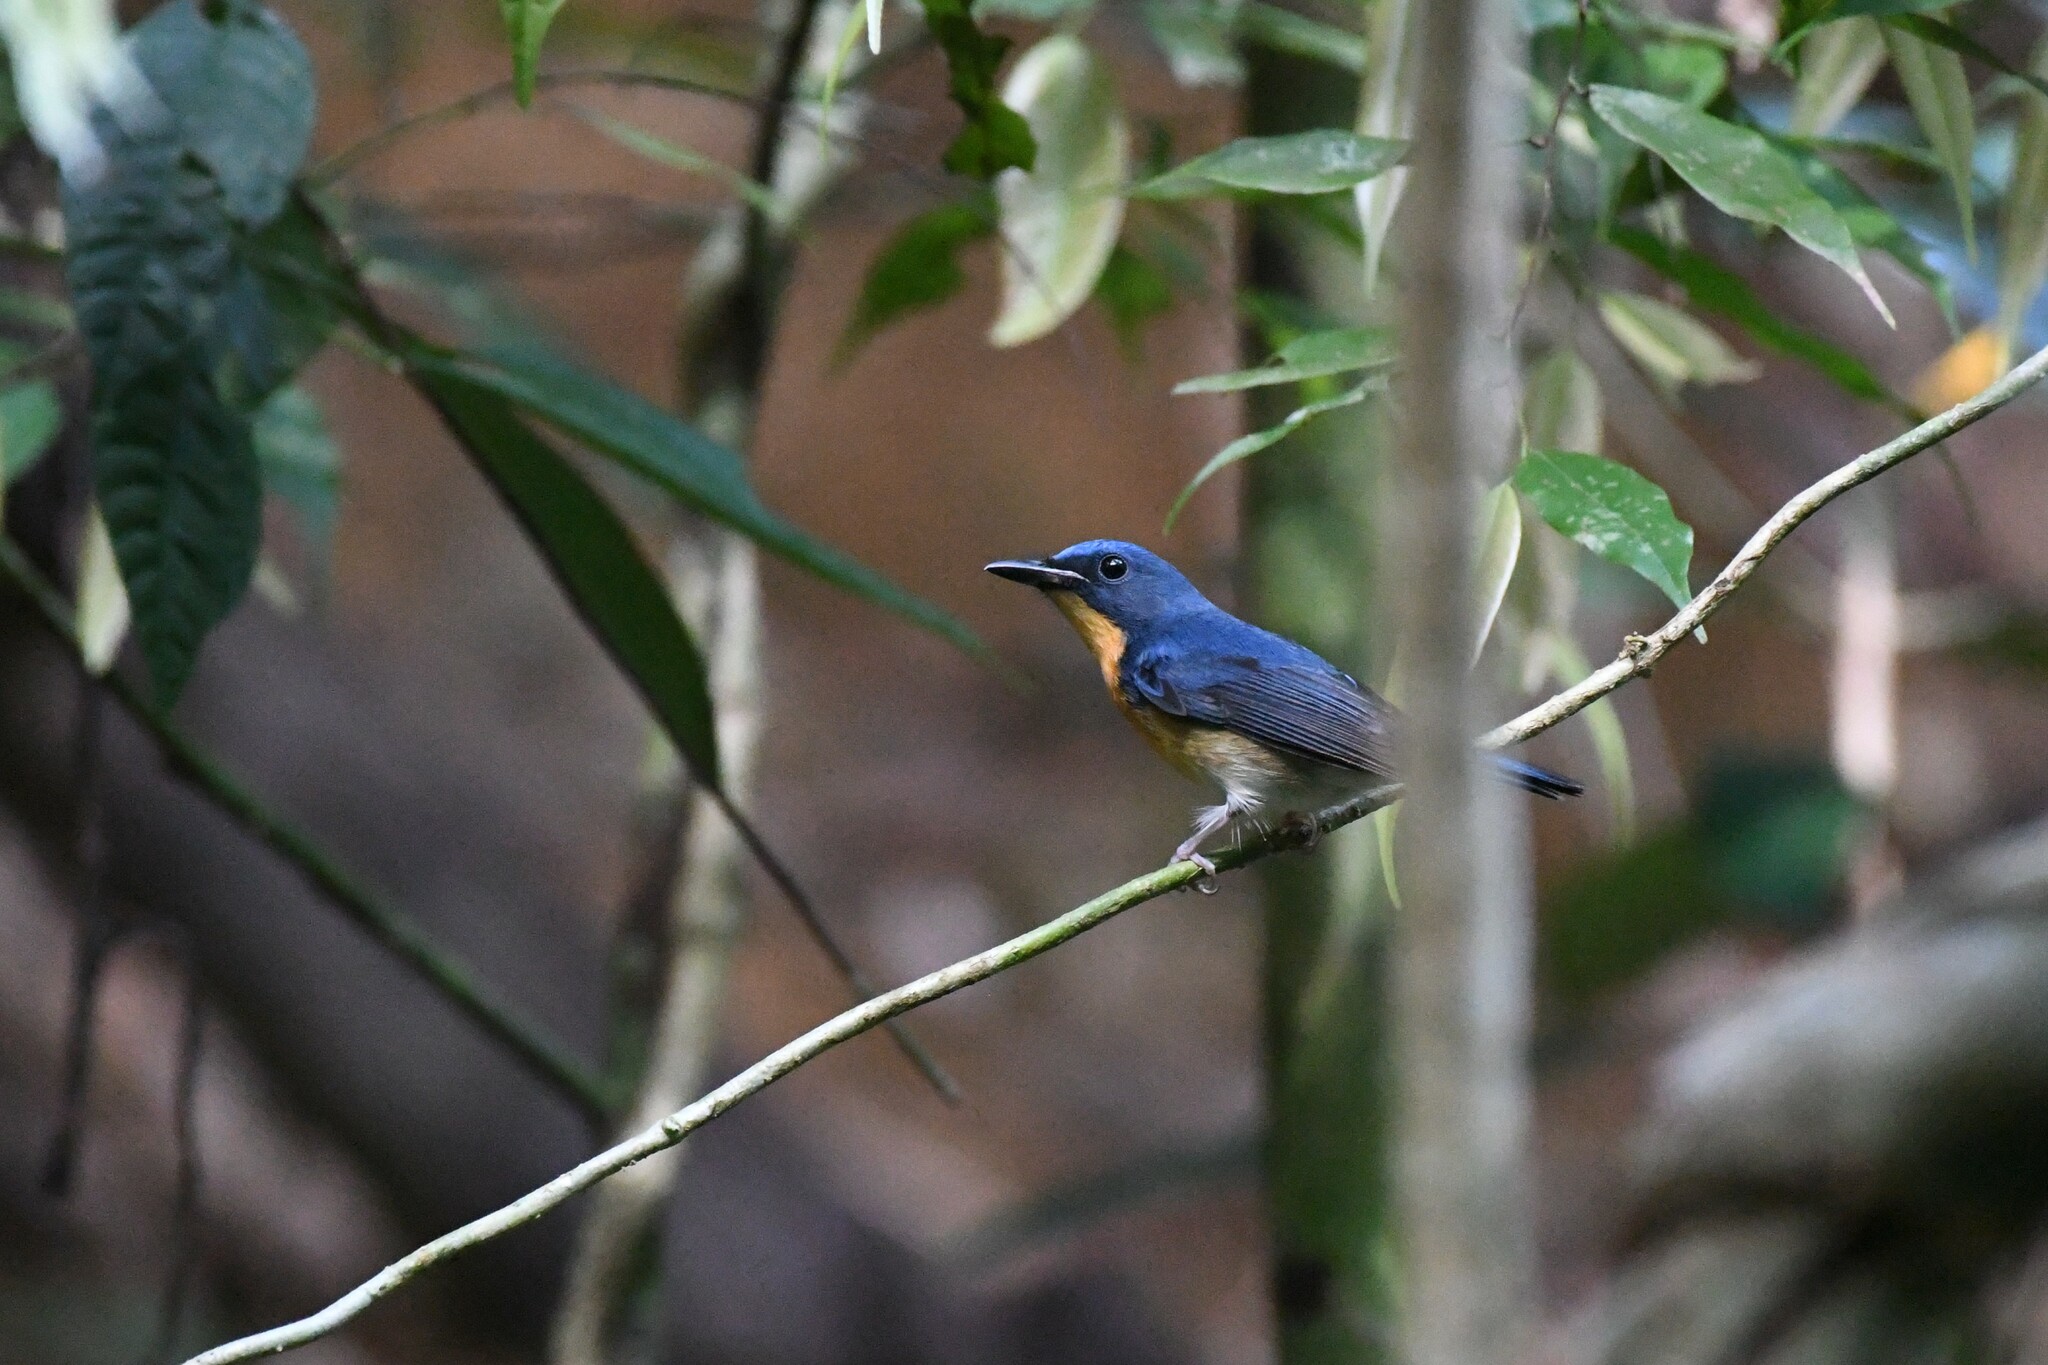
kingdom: Animalia
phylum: Chordata
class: Aves
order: Passeriformes
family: Muscicapidae
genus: Cyornis
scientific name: Cyornis magnirostris
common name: Large blue flycatcher
